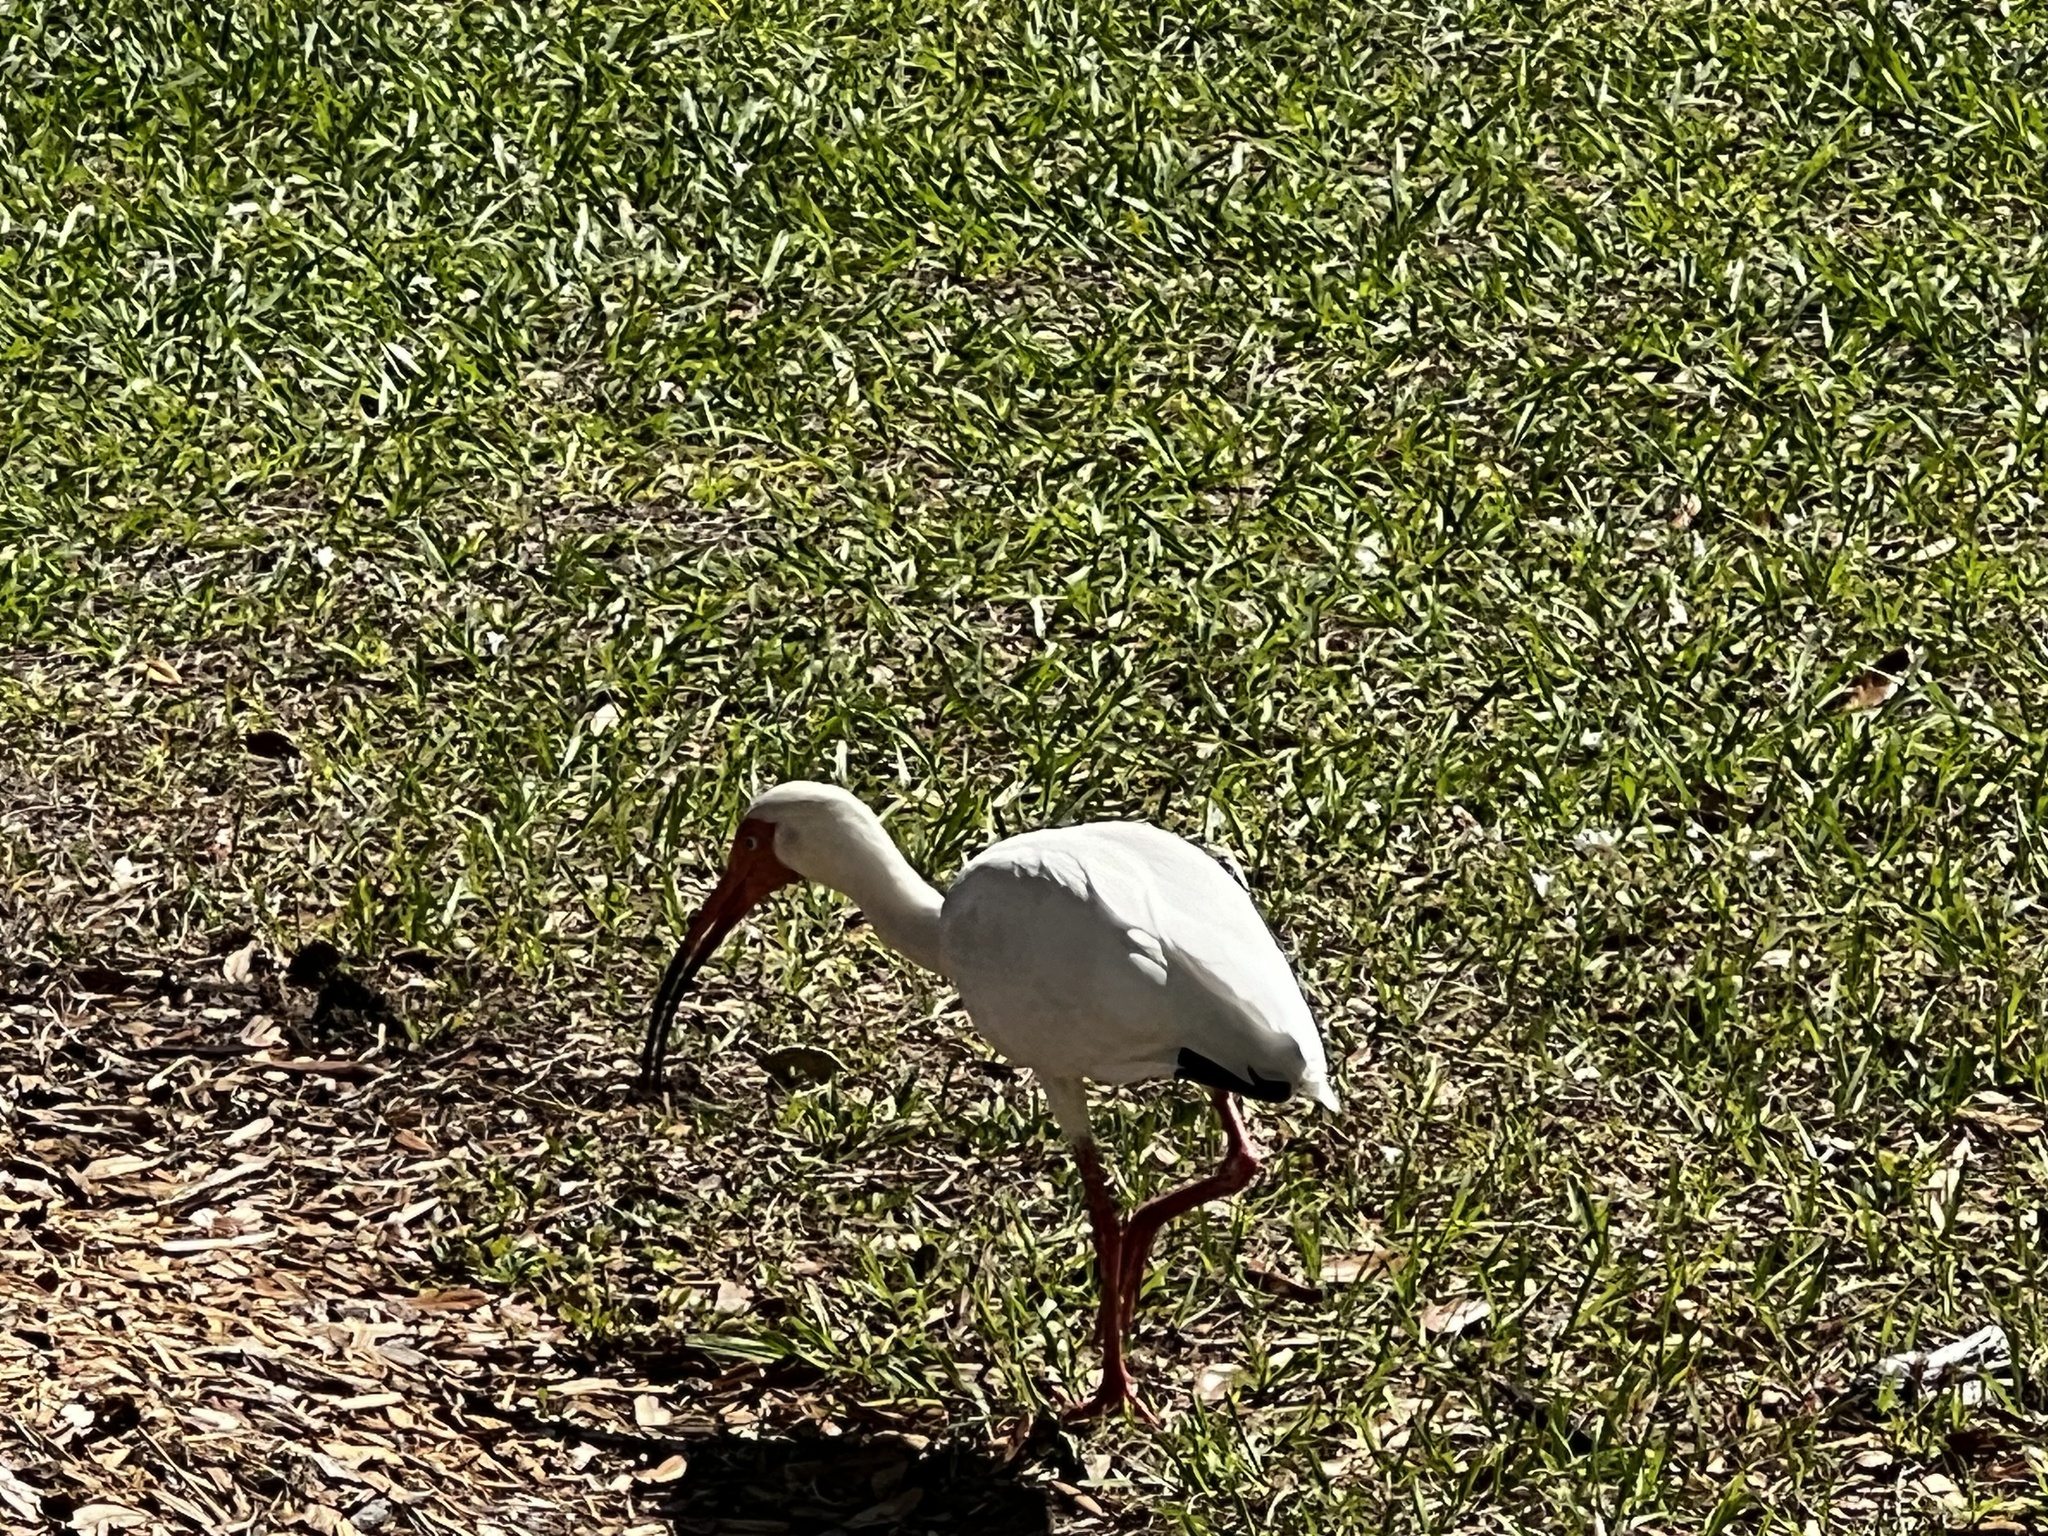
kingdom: Animalia
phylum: Chordata
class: Aves
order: Pelecaniformes
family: Threskiornithidae
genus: Eudocimus
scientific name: Eudocimus albus
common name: White ibis
